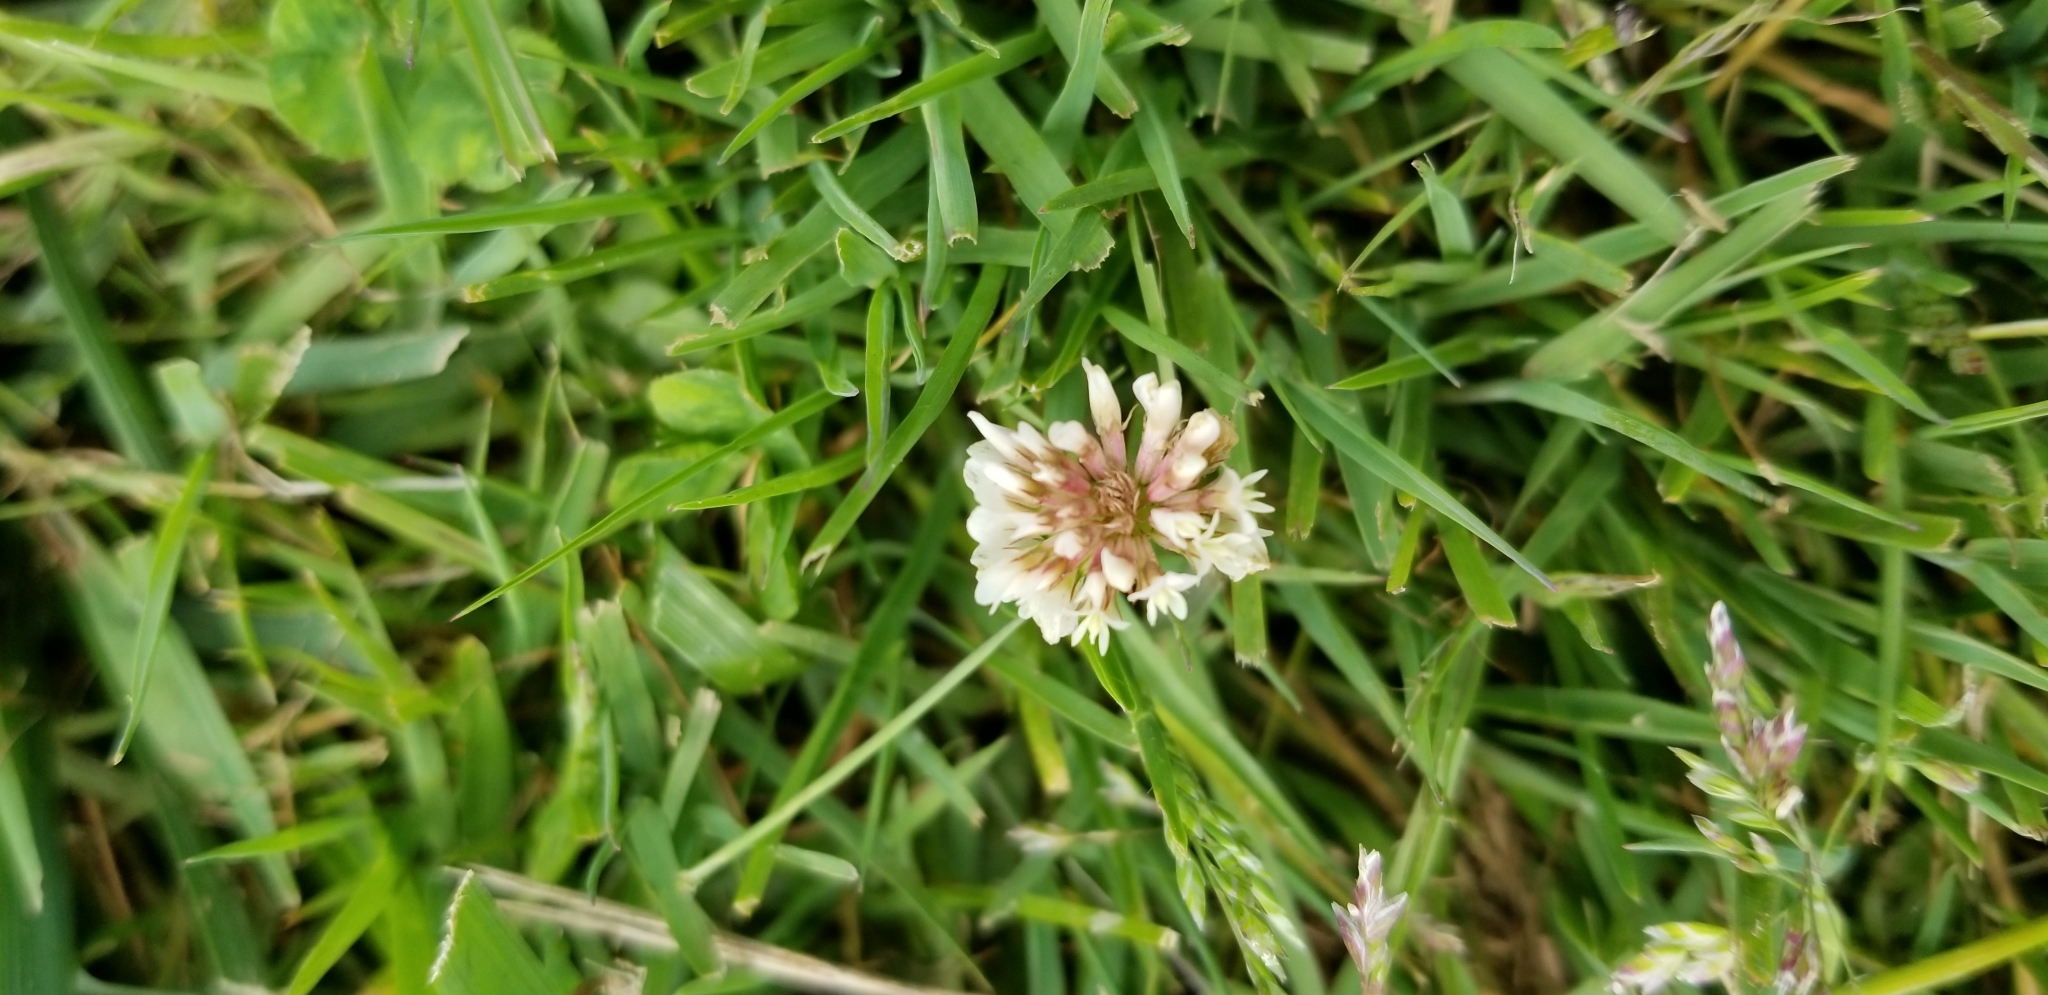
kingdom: Plantae
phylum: Tracheophyta
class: Magnoliopsida
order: Fabales
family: Fabaceae
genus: Trifolium
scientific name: Trifolium repens
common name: White clover
